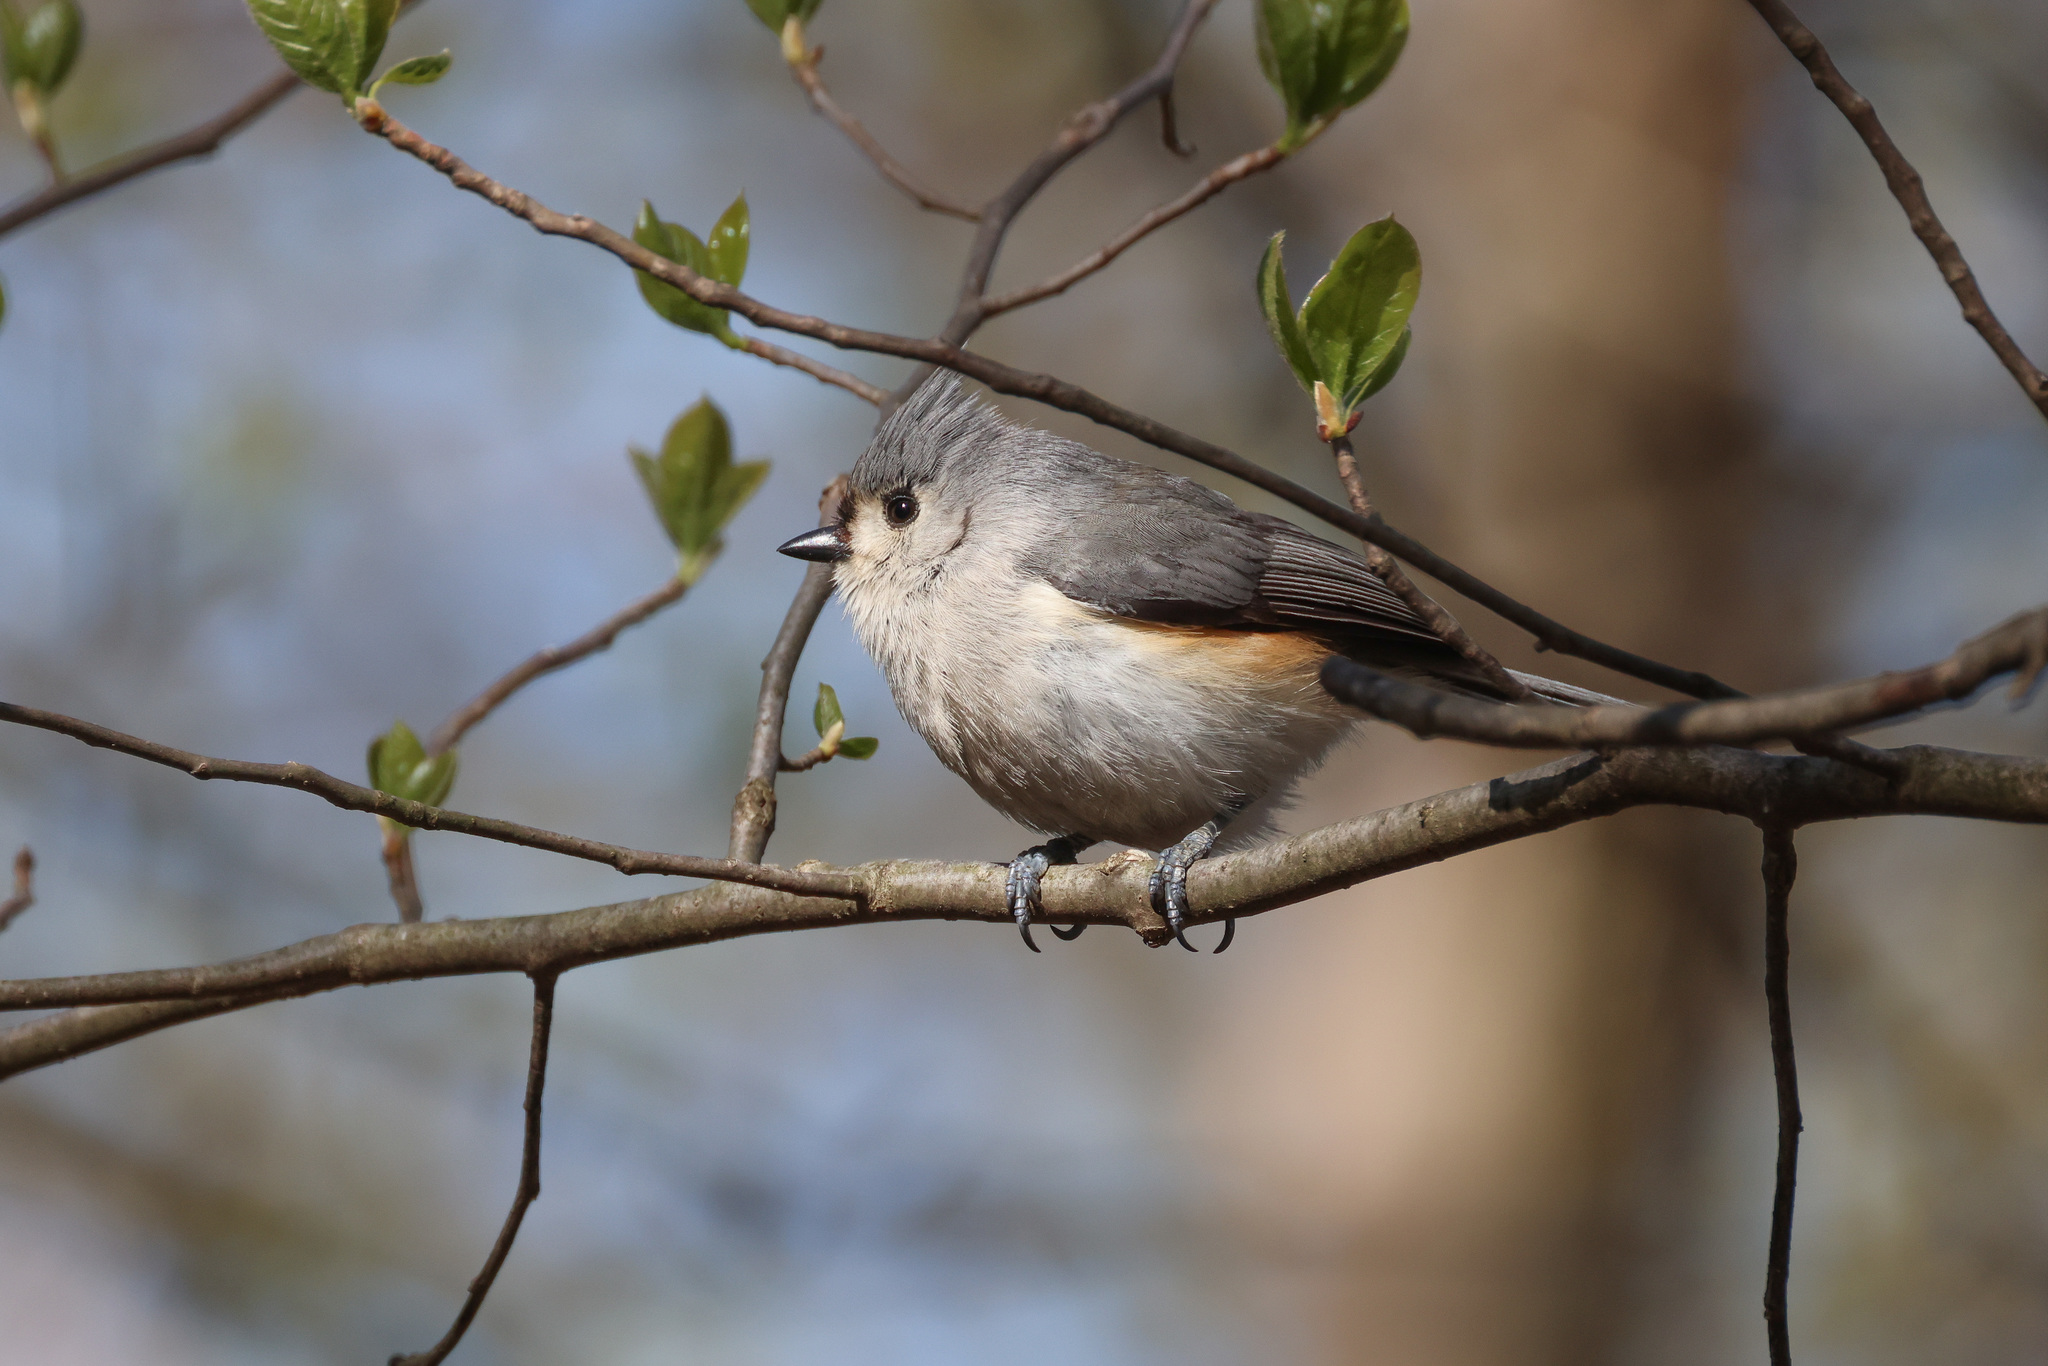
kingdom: Animalia
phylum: Chordata
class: Aves
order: Passeriformes
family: Paridae
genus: Baeolophus
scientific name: Baeolophus bicolor
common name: Tufted titmouse
